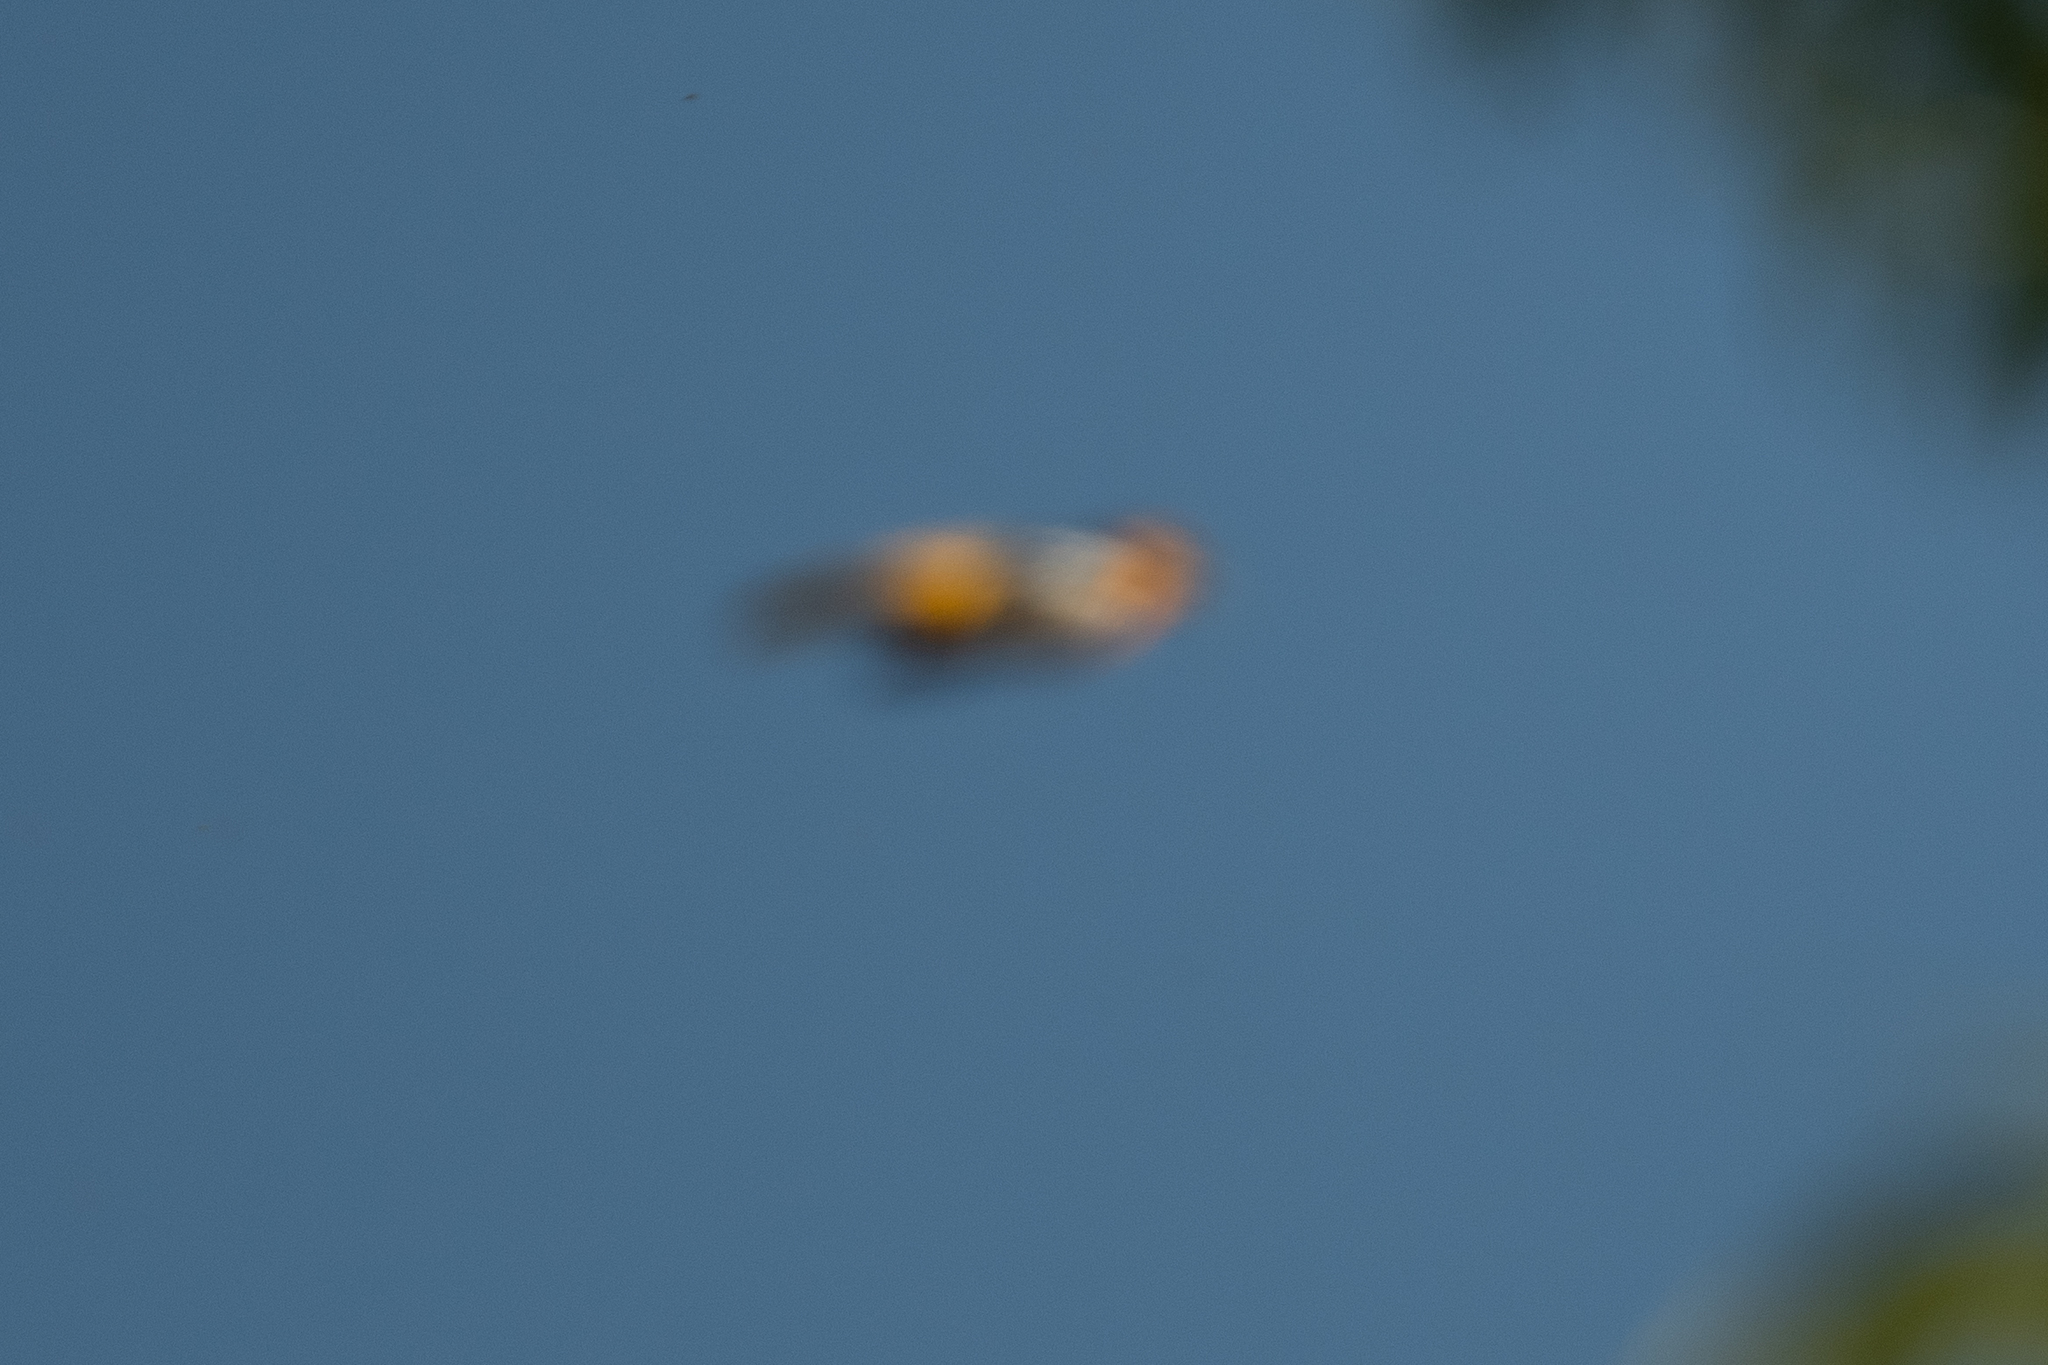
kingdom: Animalia
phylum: Chordata
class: Aves
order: Passeriformes
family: Icteridae
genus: Icterus
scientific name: Icterus bullockii
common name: Bullock's oriole
